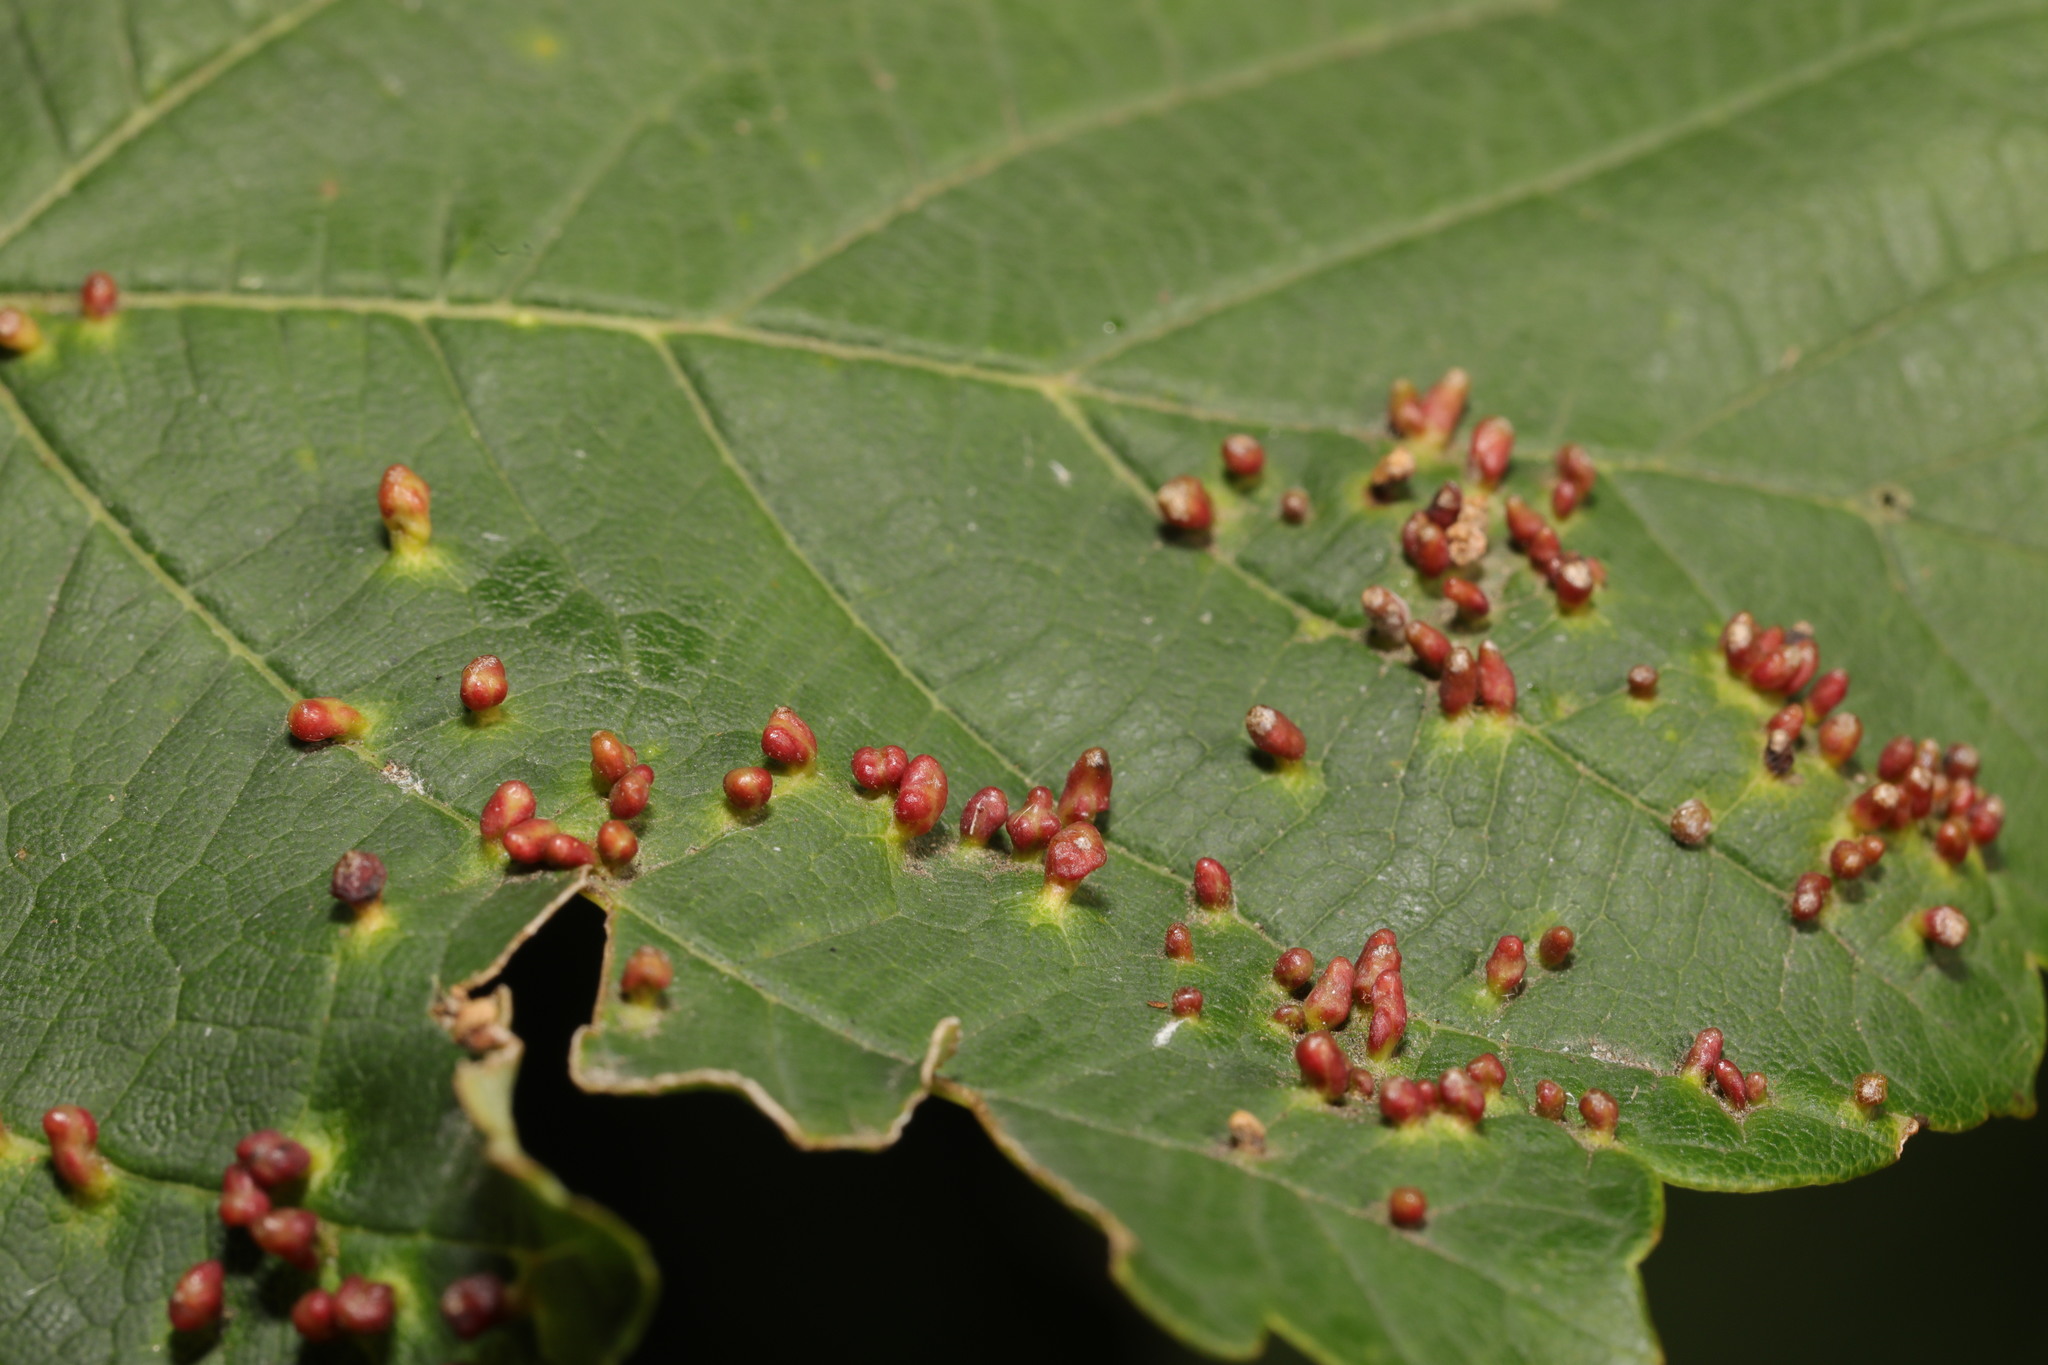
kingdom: Animalia
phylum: Arthropoda
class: Arachnida
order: Trombidiformes
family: Eriophyidae
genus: Aceria
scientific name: Aceria cephaloneus
